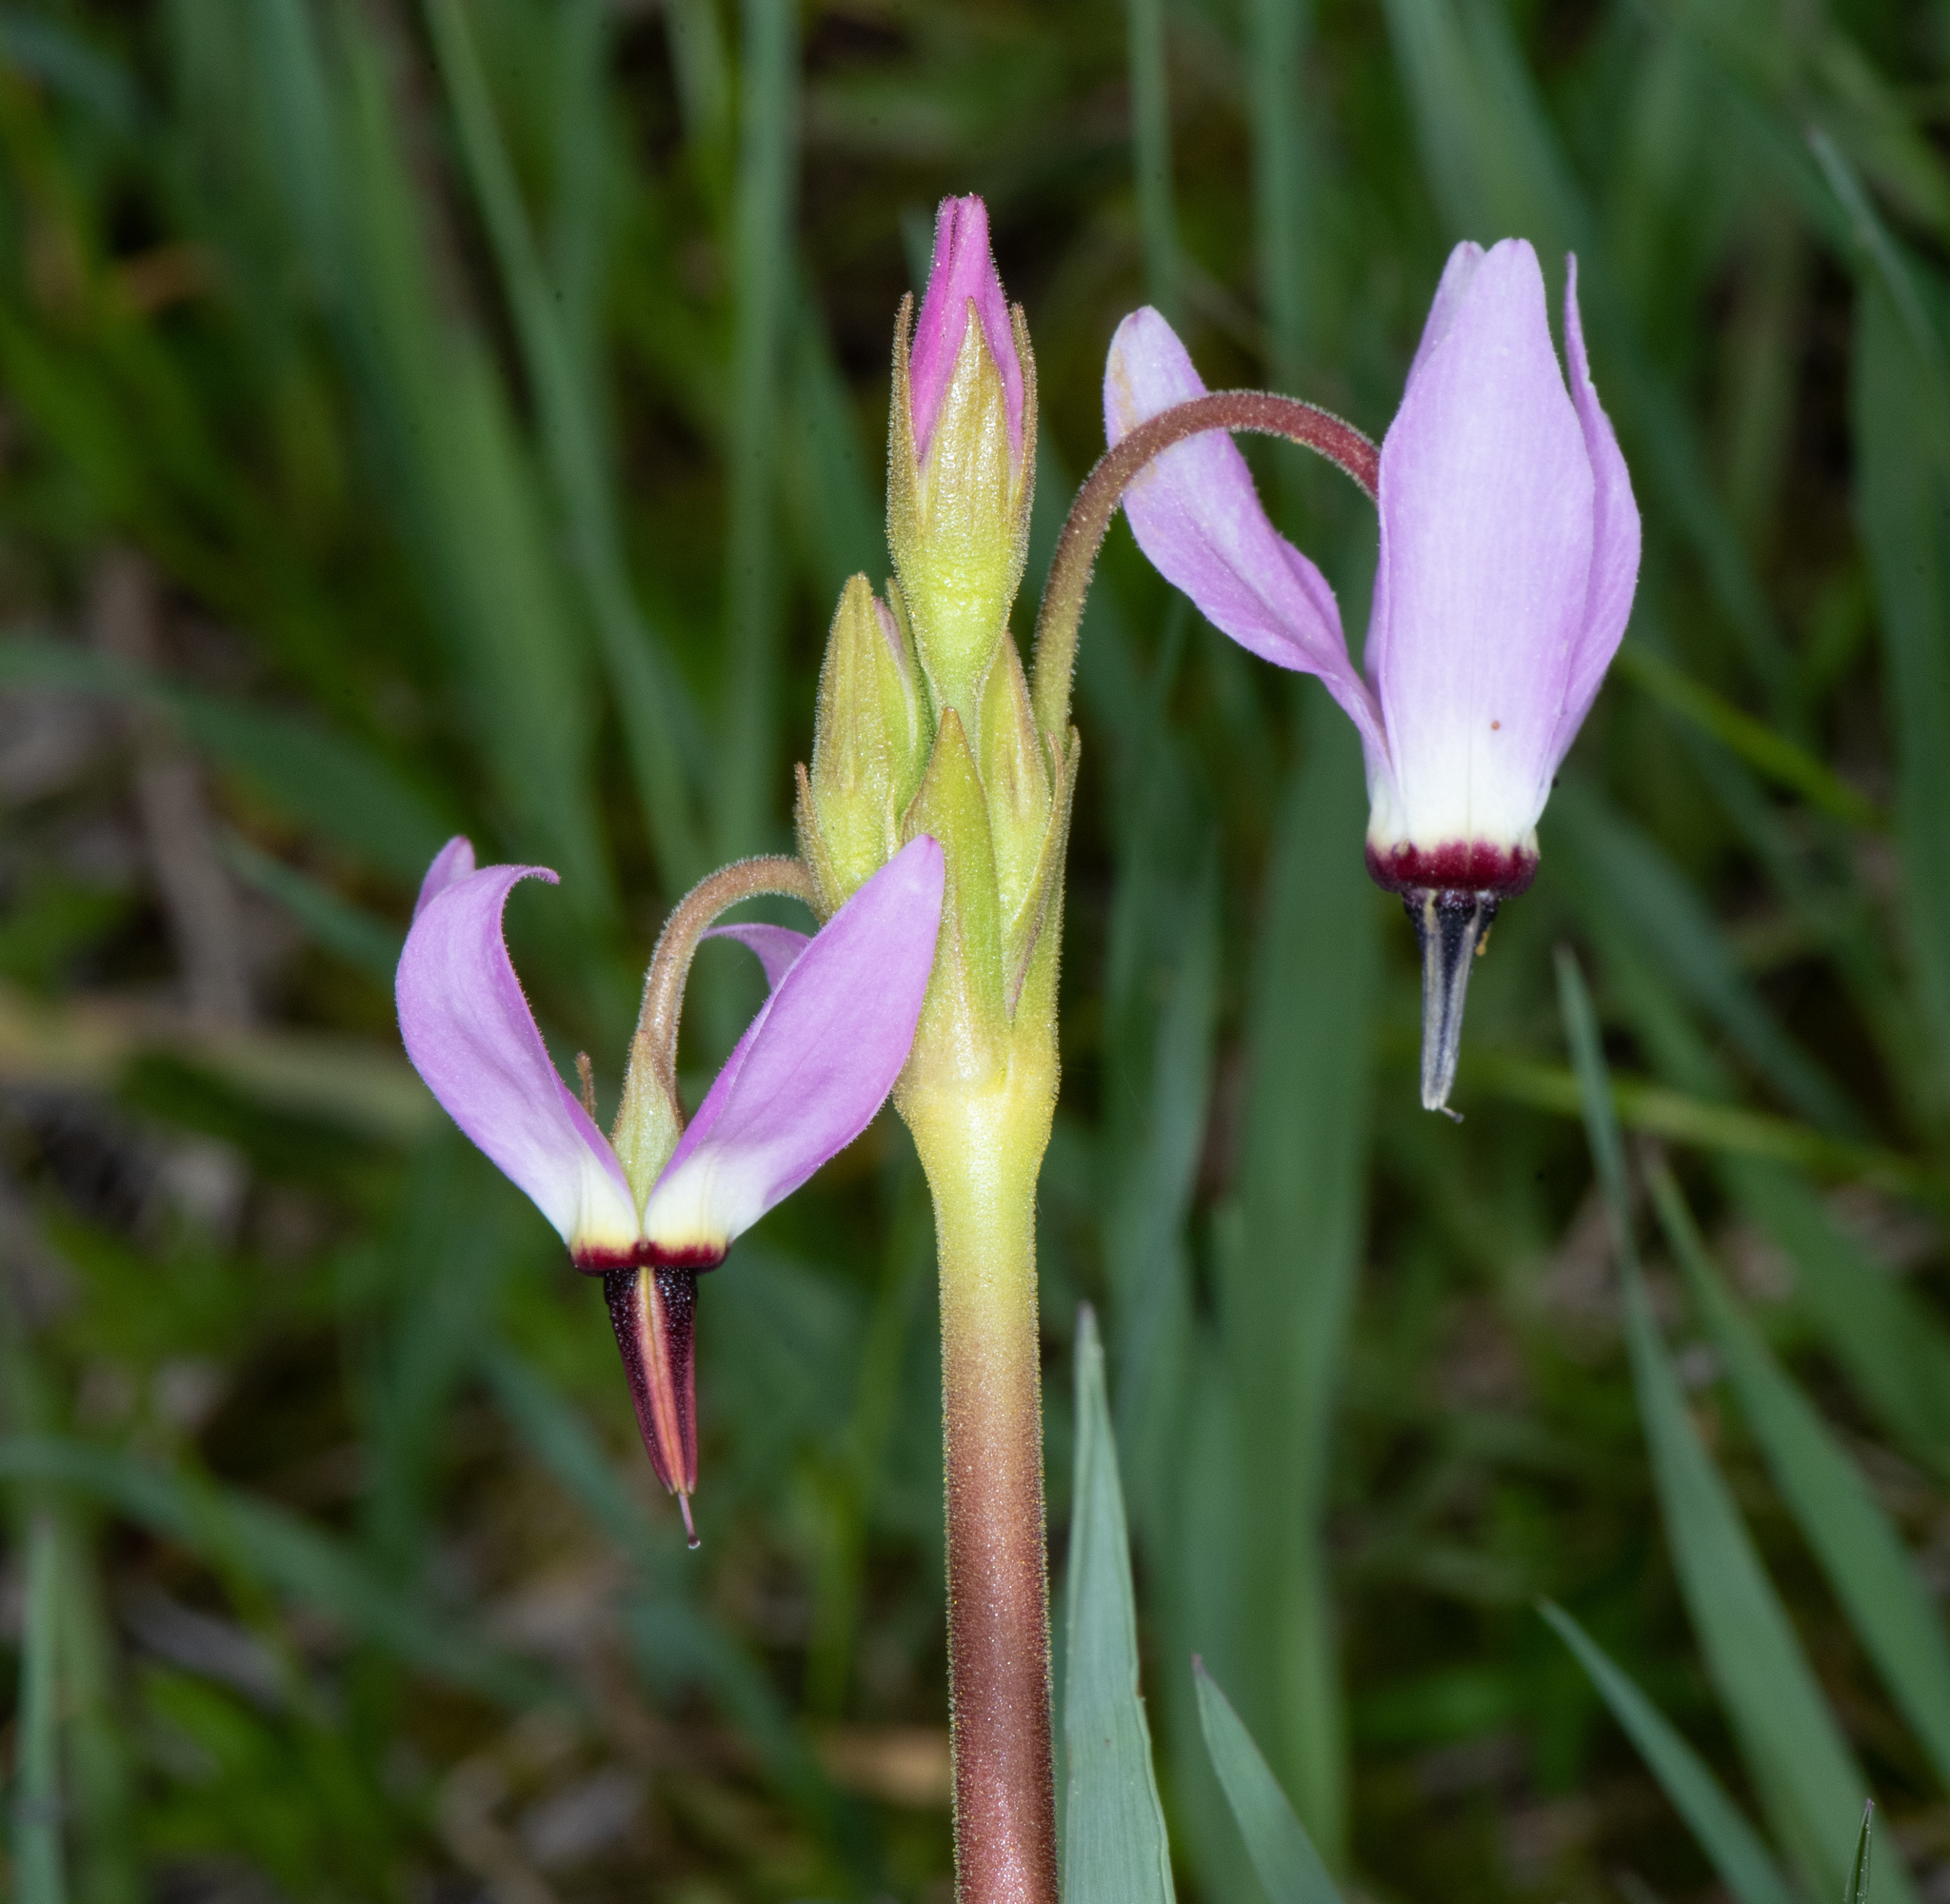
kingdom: Plantae
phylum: Tracheophyta
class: Magnoliopsida
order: Ericales
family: Primulaceae
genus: Dodecatheon
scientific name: Dodecatheon jeffreyanum
